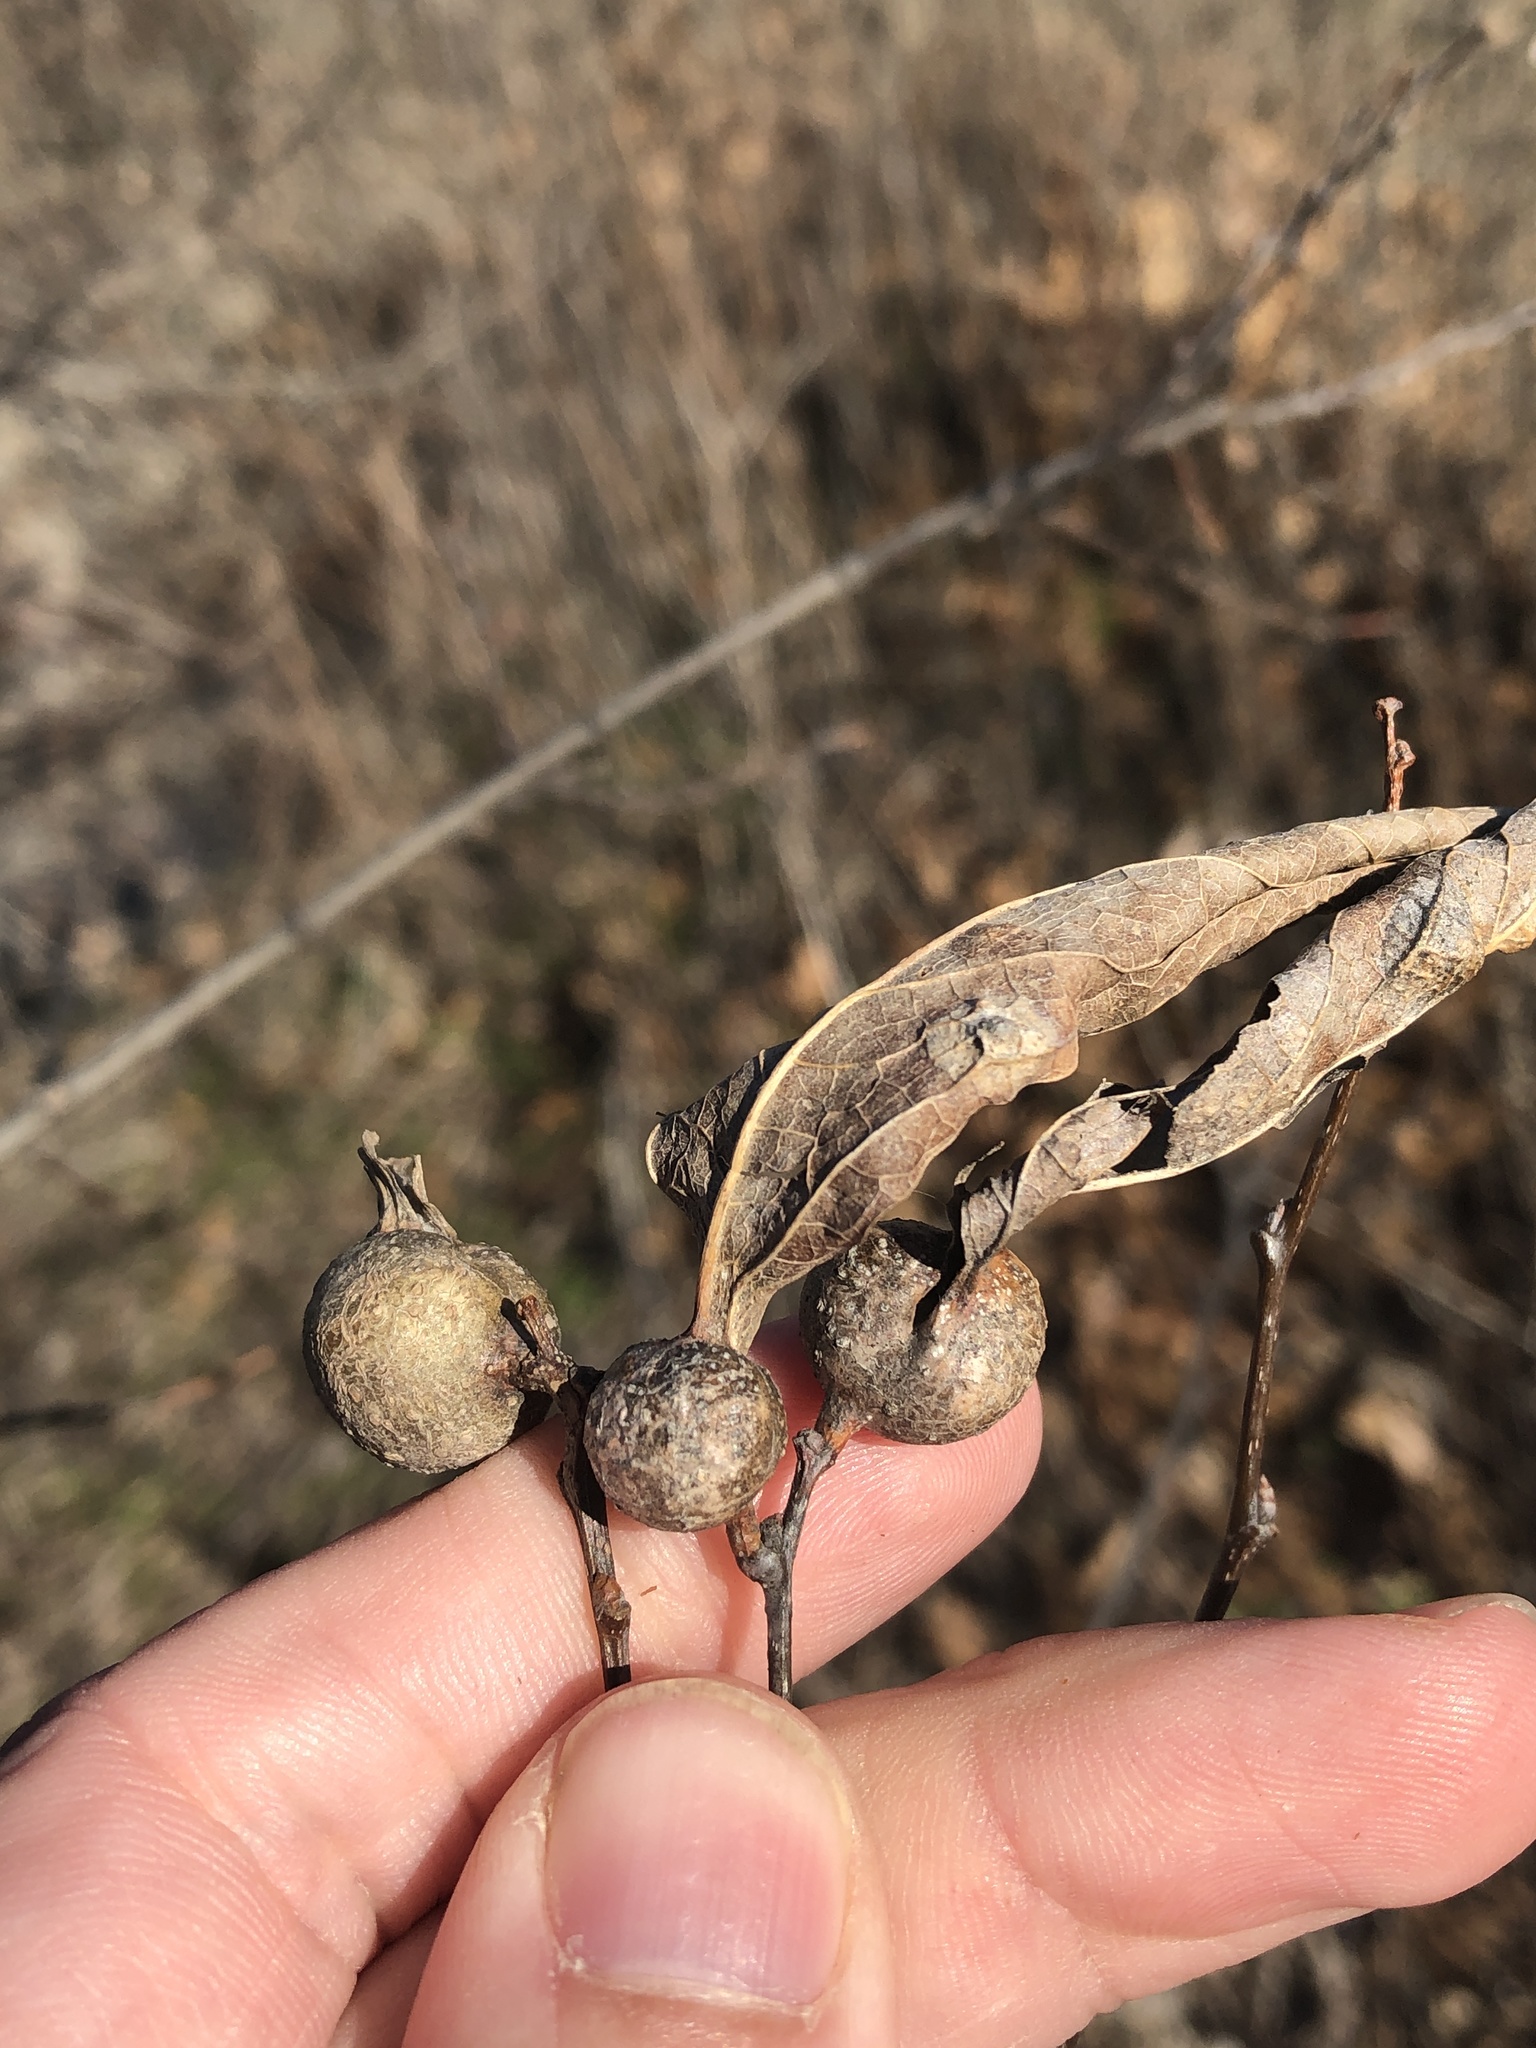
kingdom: Animalia
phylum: Arthropoda
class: Insecta
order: Hemiptera
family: Aphalaridae
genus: Pachypsylla
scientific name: Pachypsylla venusta
